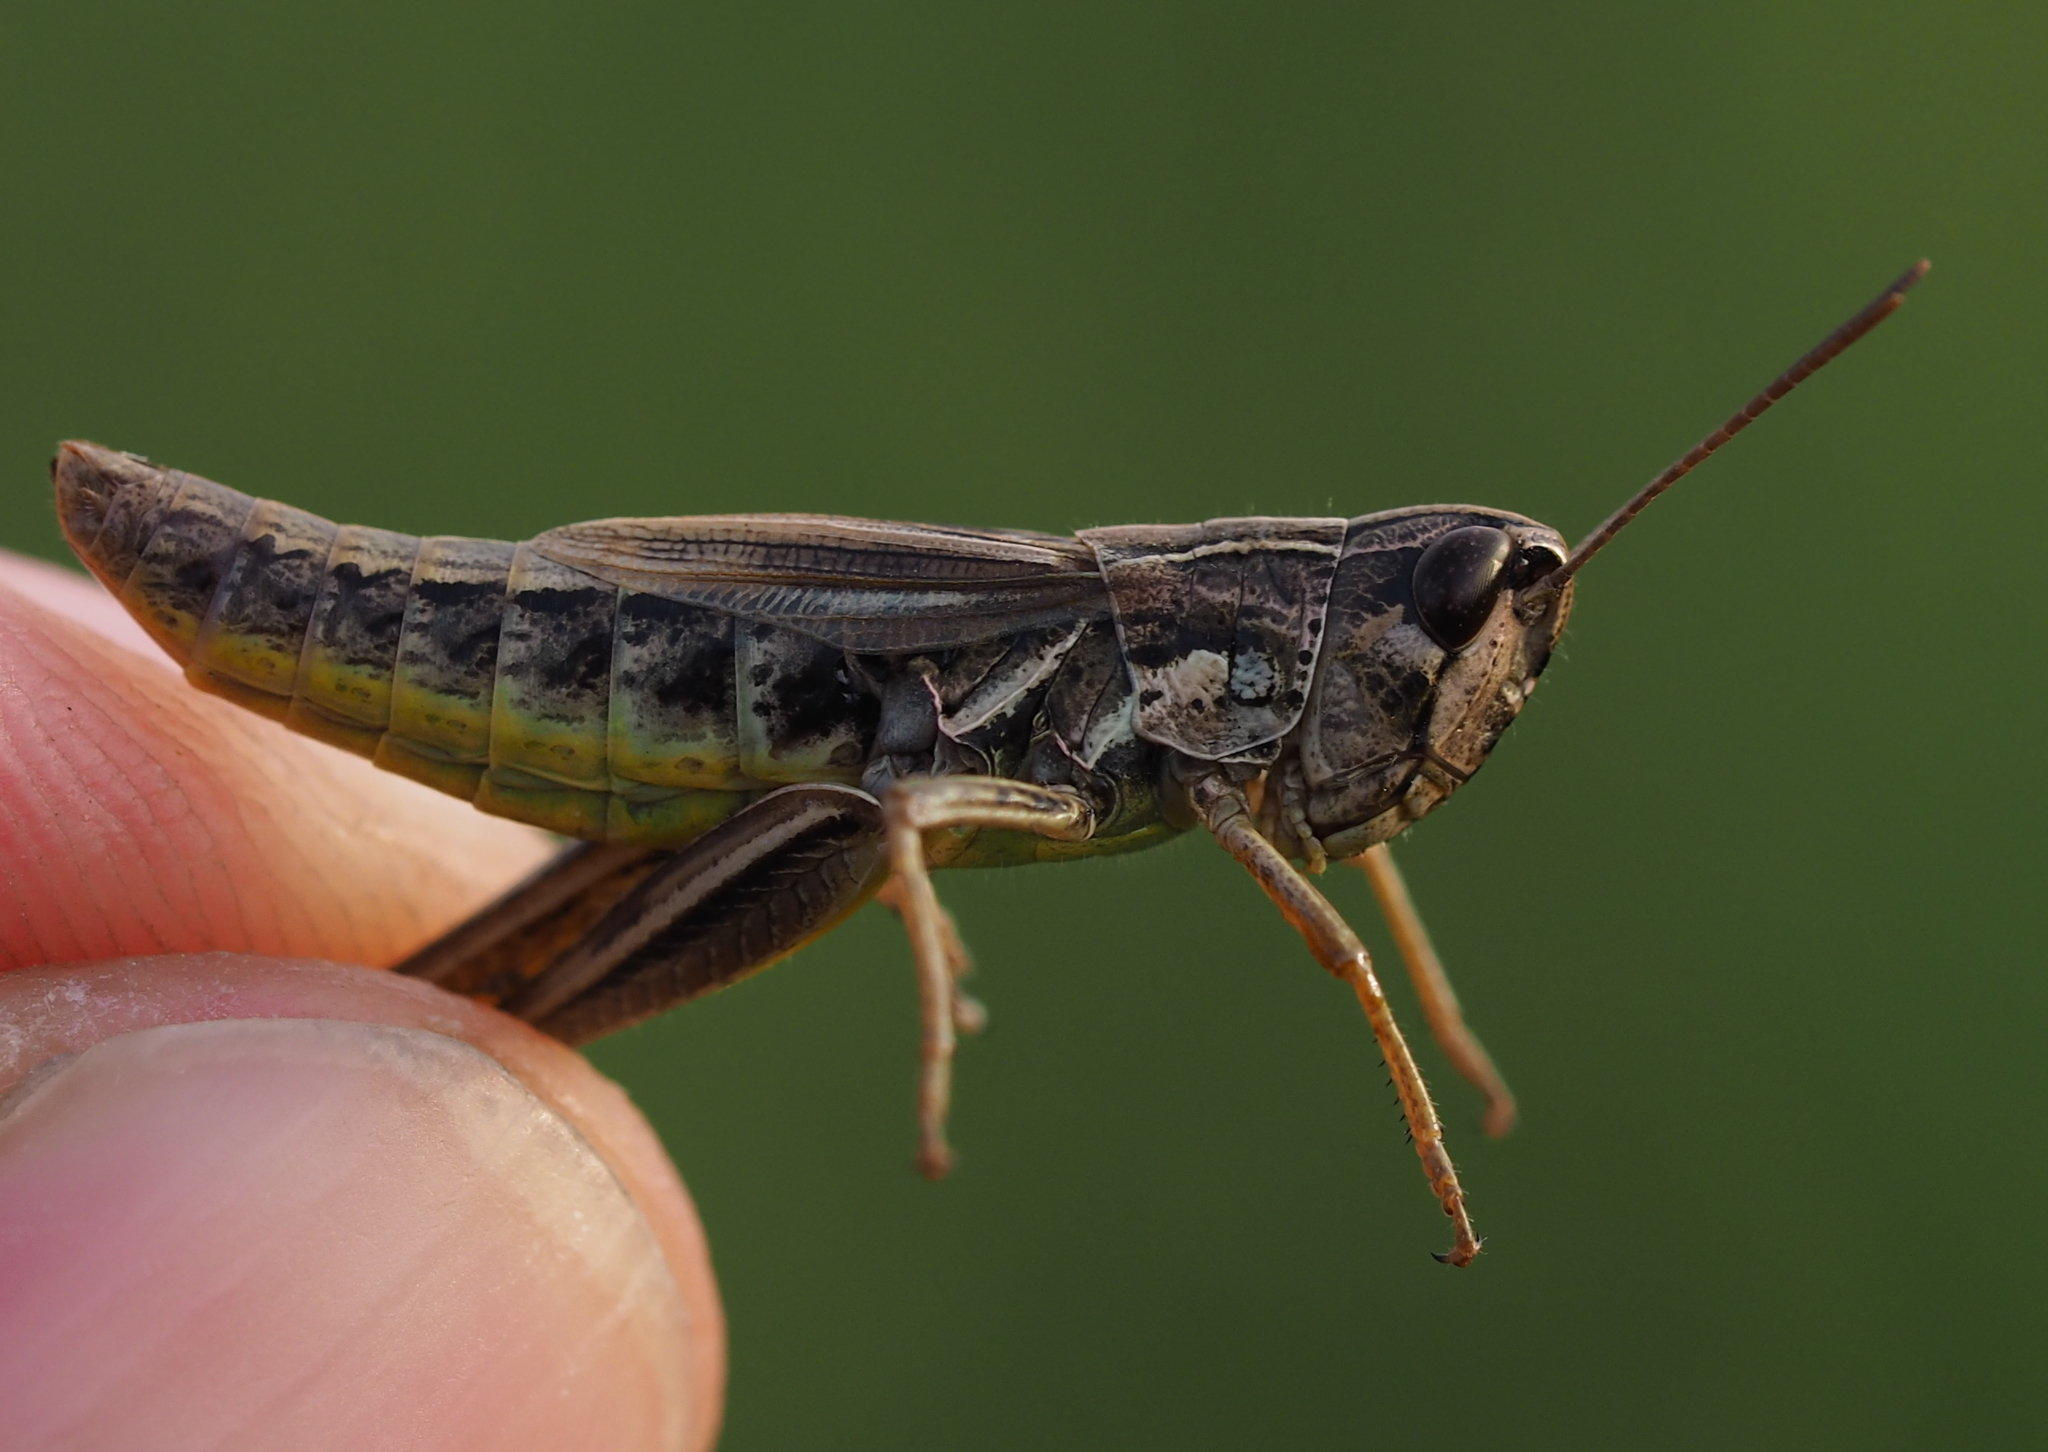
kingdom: Animalia
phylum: Arthropoda
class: Insecta
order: Orthoptera
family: Acrididae
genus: Pseudochorthippus
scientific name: Pseudochorthippus parallelus
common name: Meadow grasshopper
